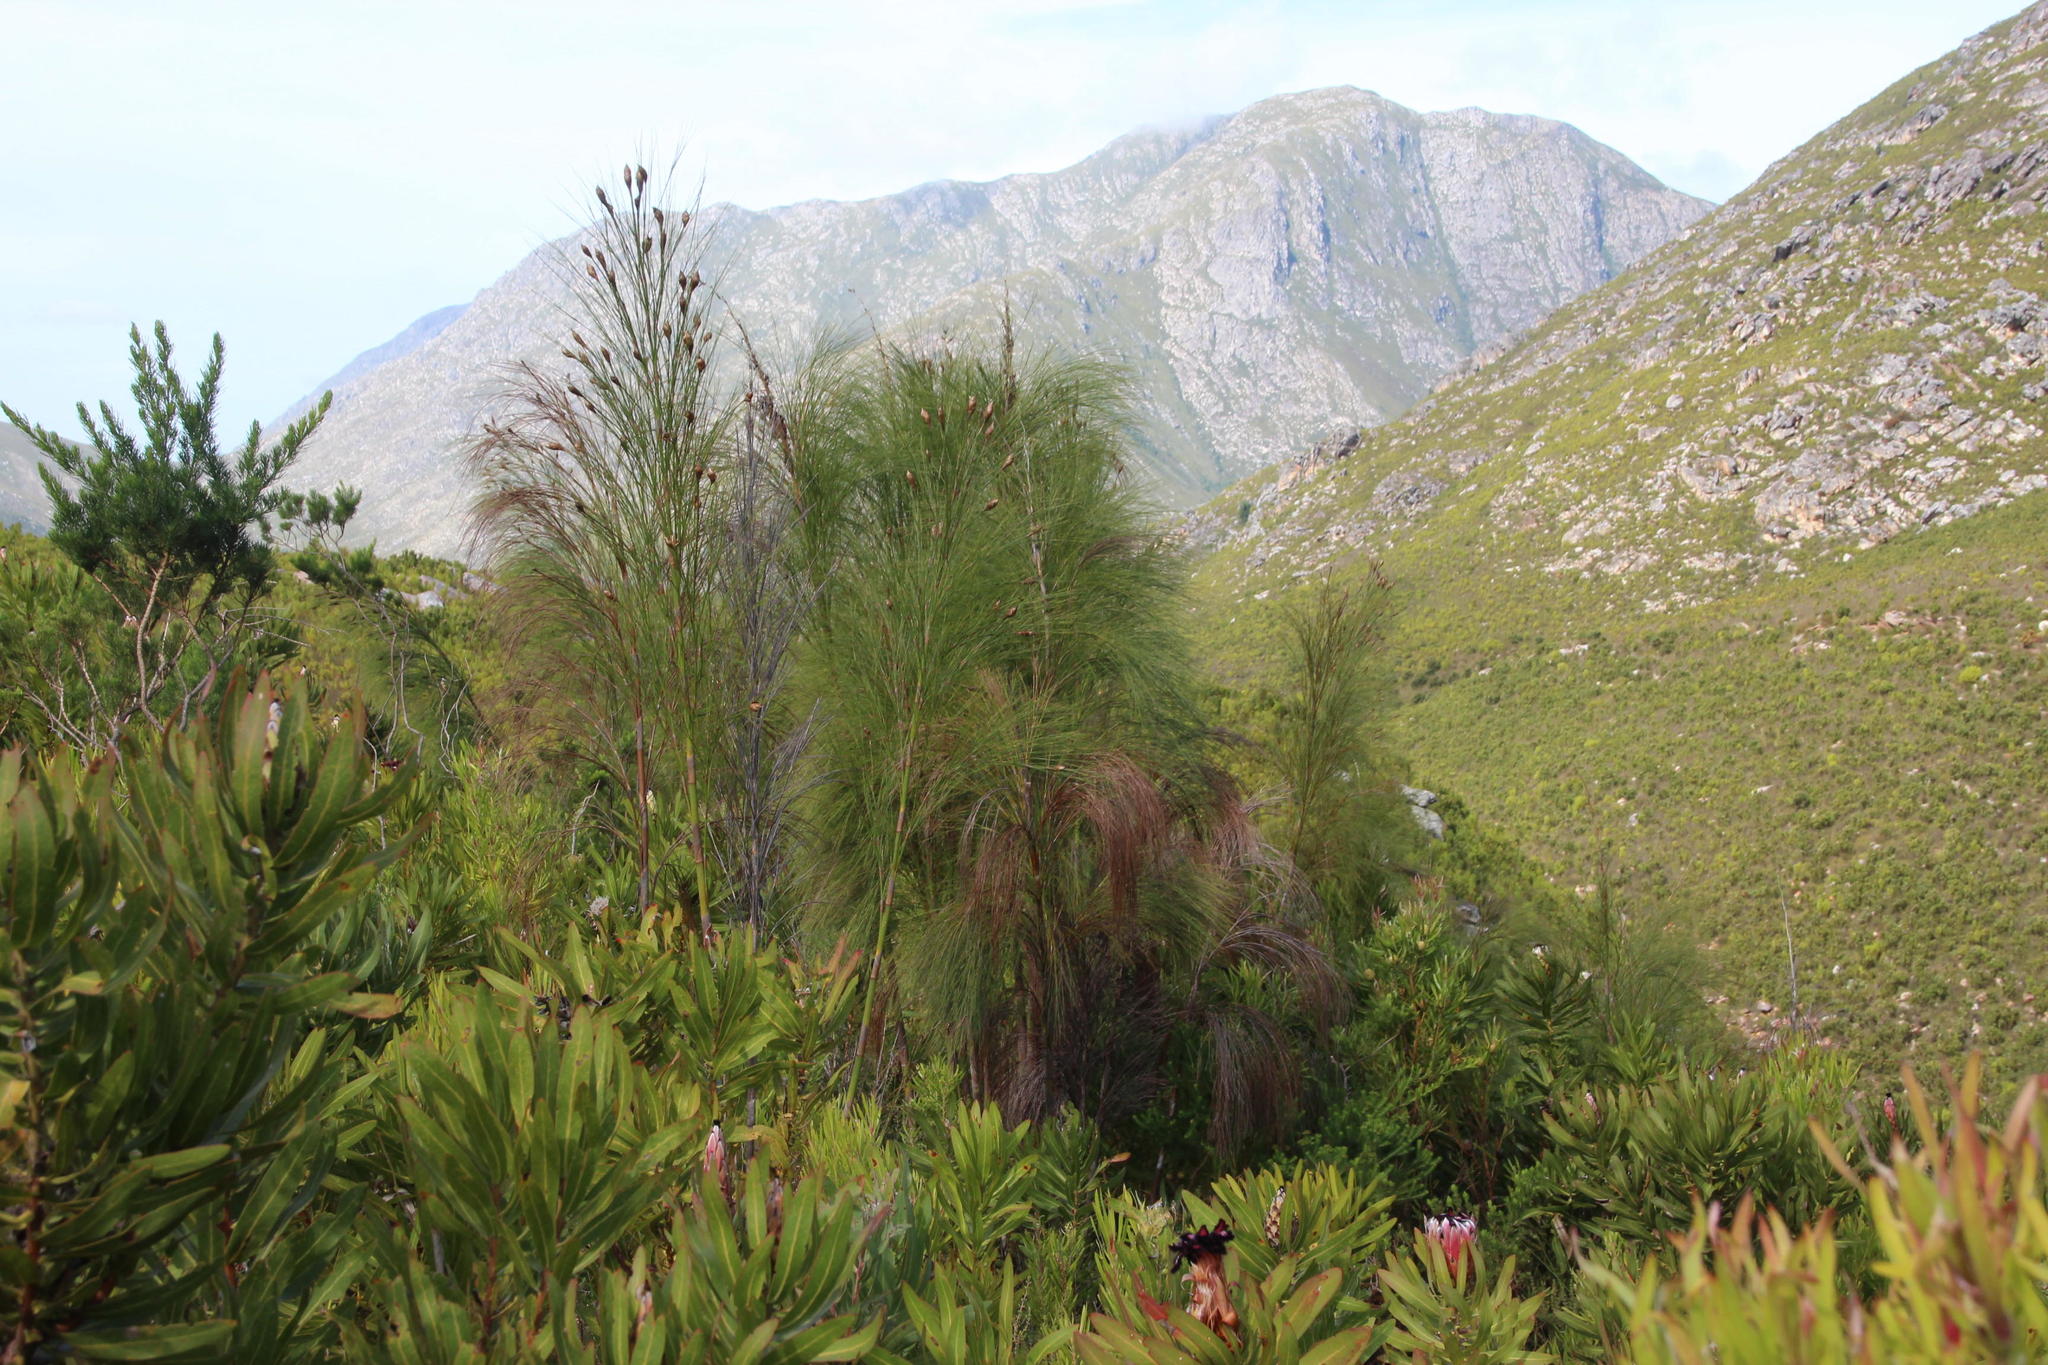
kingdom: Plantae
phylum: Tracheophyta
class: Liliopsida
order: Poales
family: Restionaceae
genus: Cannomois
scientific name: Cannomois grandis
